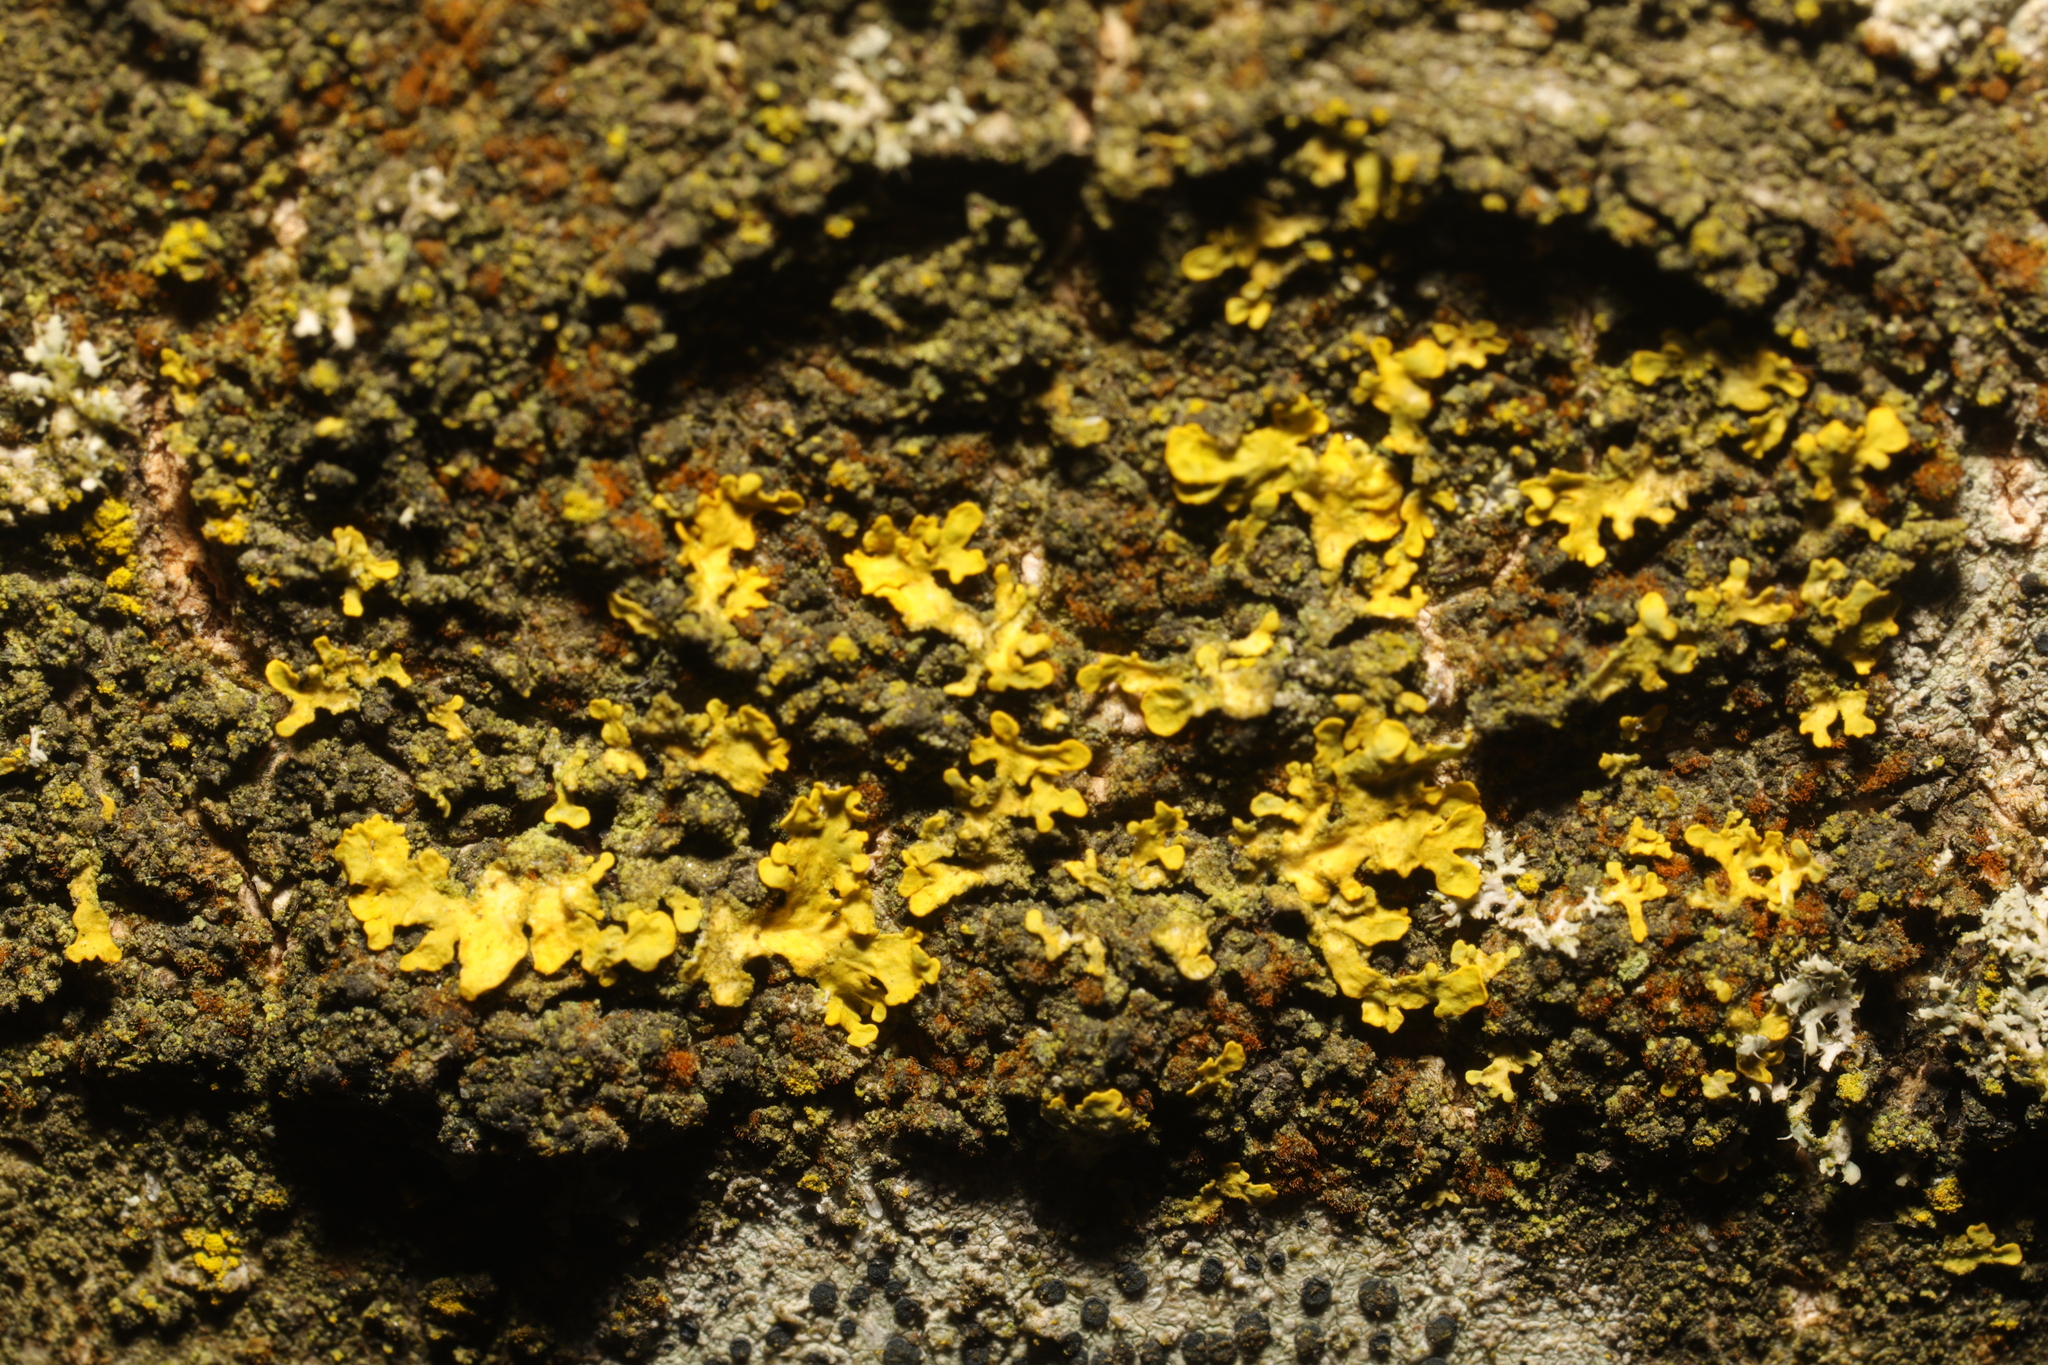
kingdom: Fungi
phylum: Ascomycota
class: Lecanoromycetes
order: Teloschistales
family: Teloschistaceae
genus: Xanthoria
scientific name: Xanthoria parietina
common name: Common orange lichen
